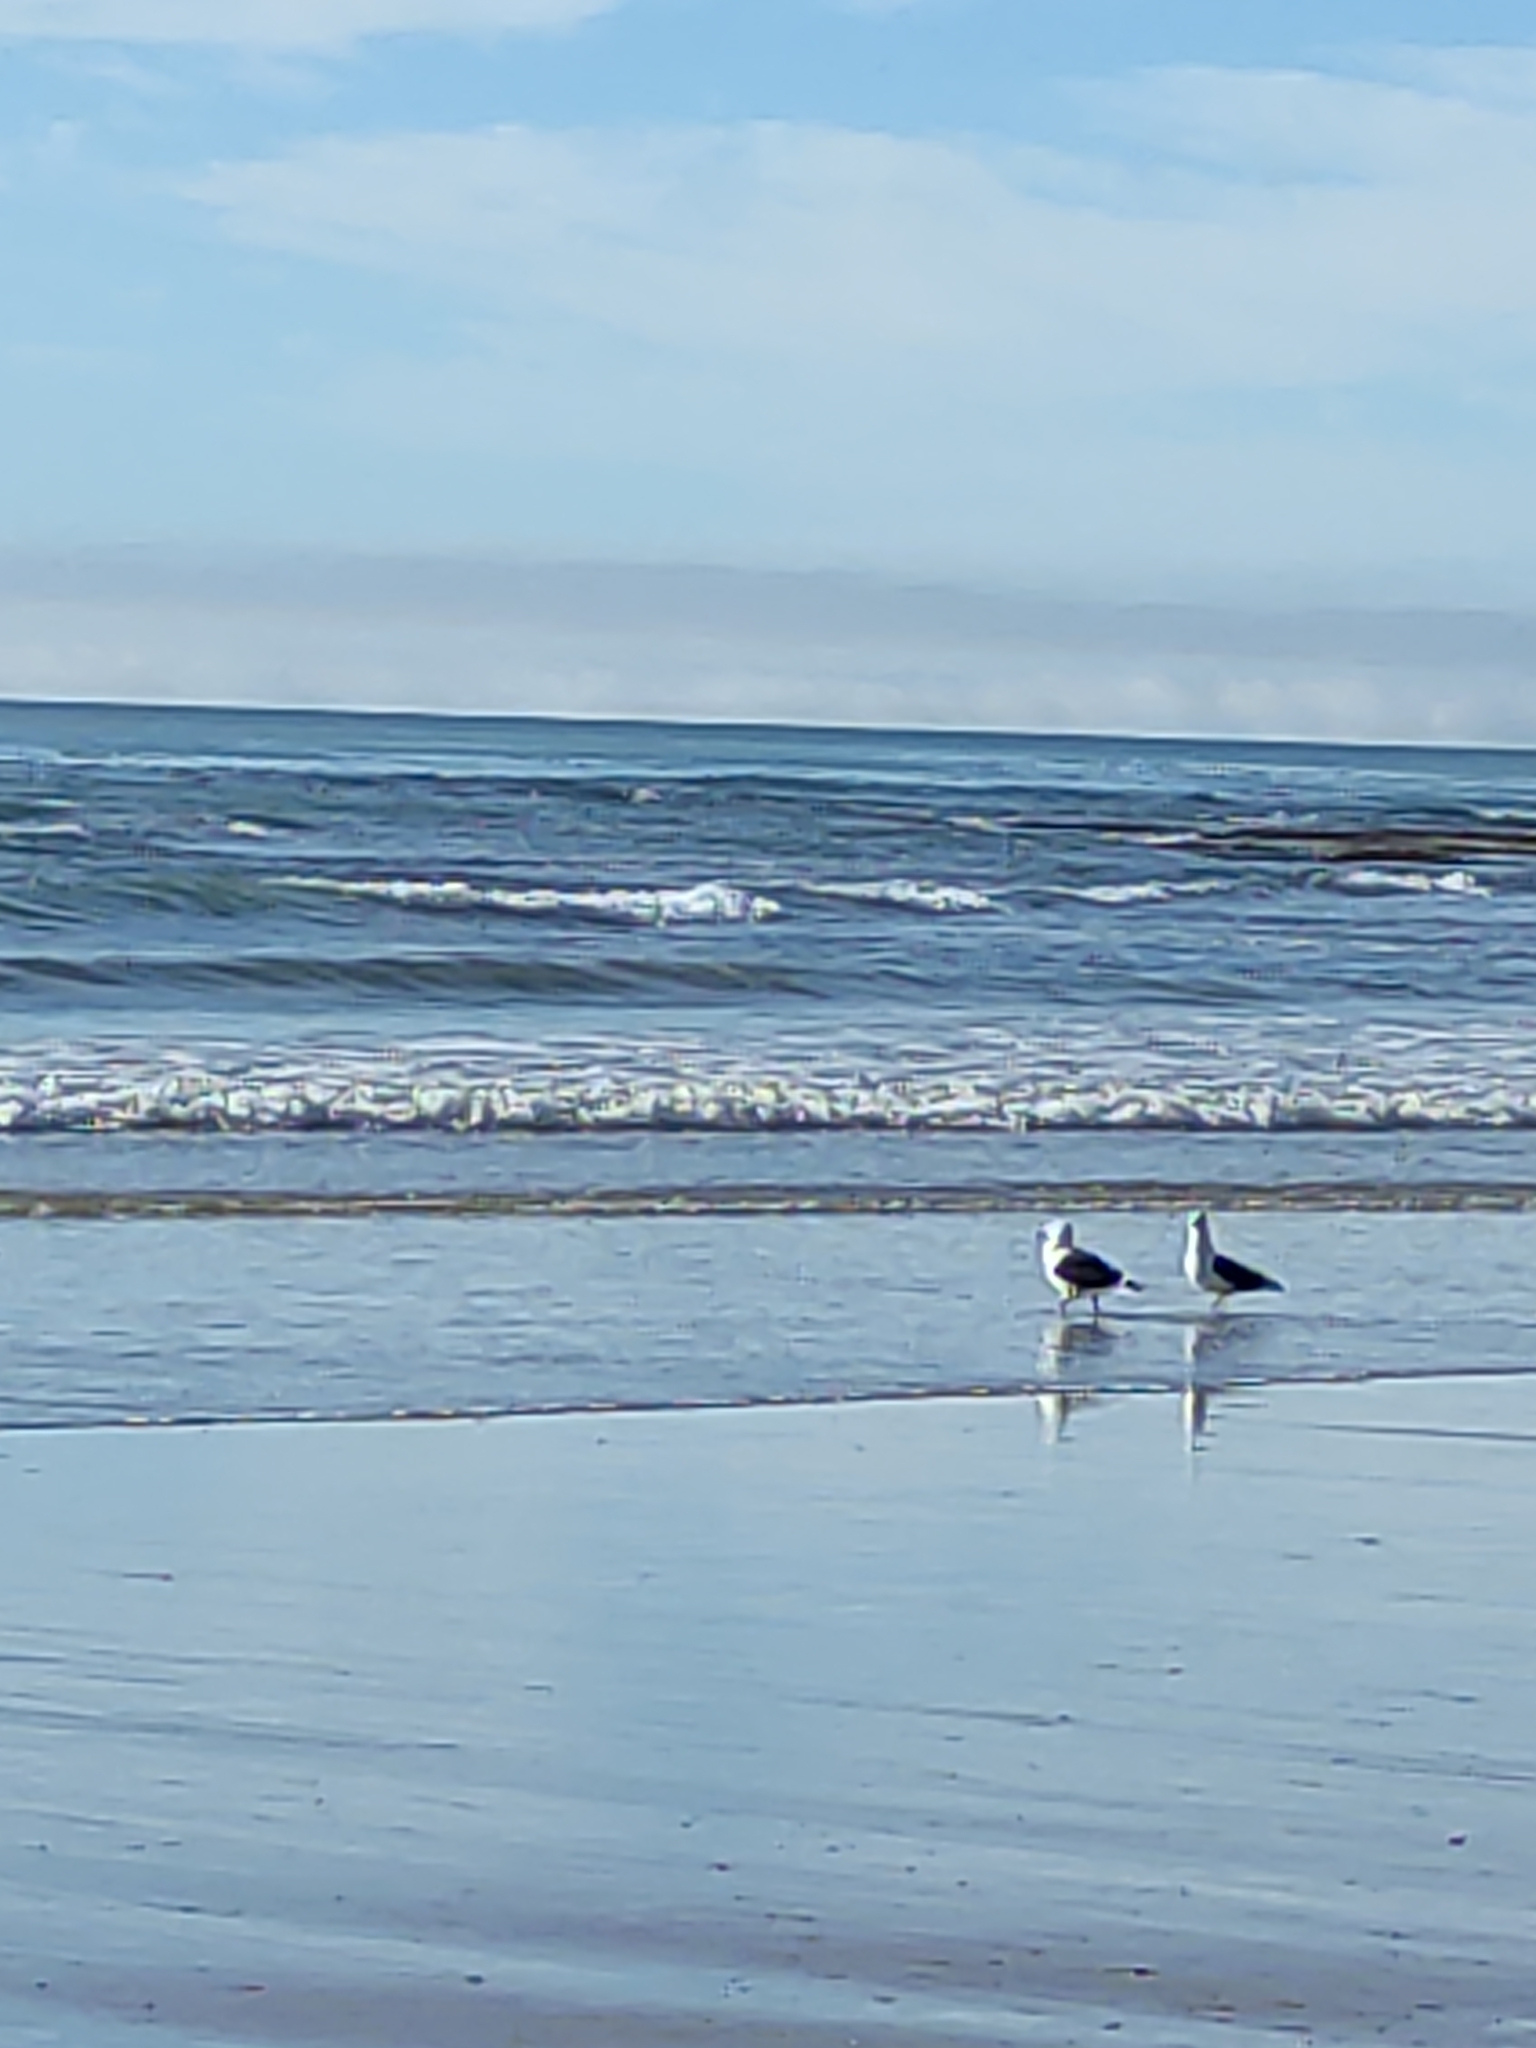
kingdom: Animalia
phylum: Chordata
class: Aves
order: Charadriiformes
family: Laridae
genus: Larus
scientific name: Larus dominicanus
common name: Kelp gull
